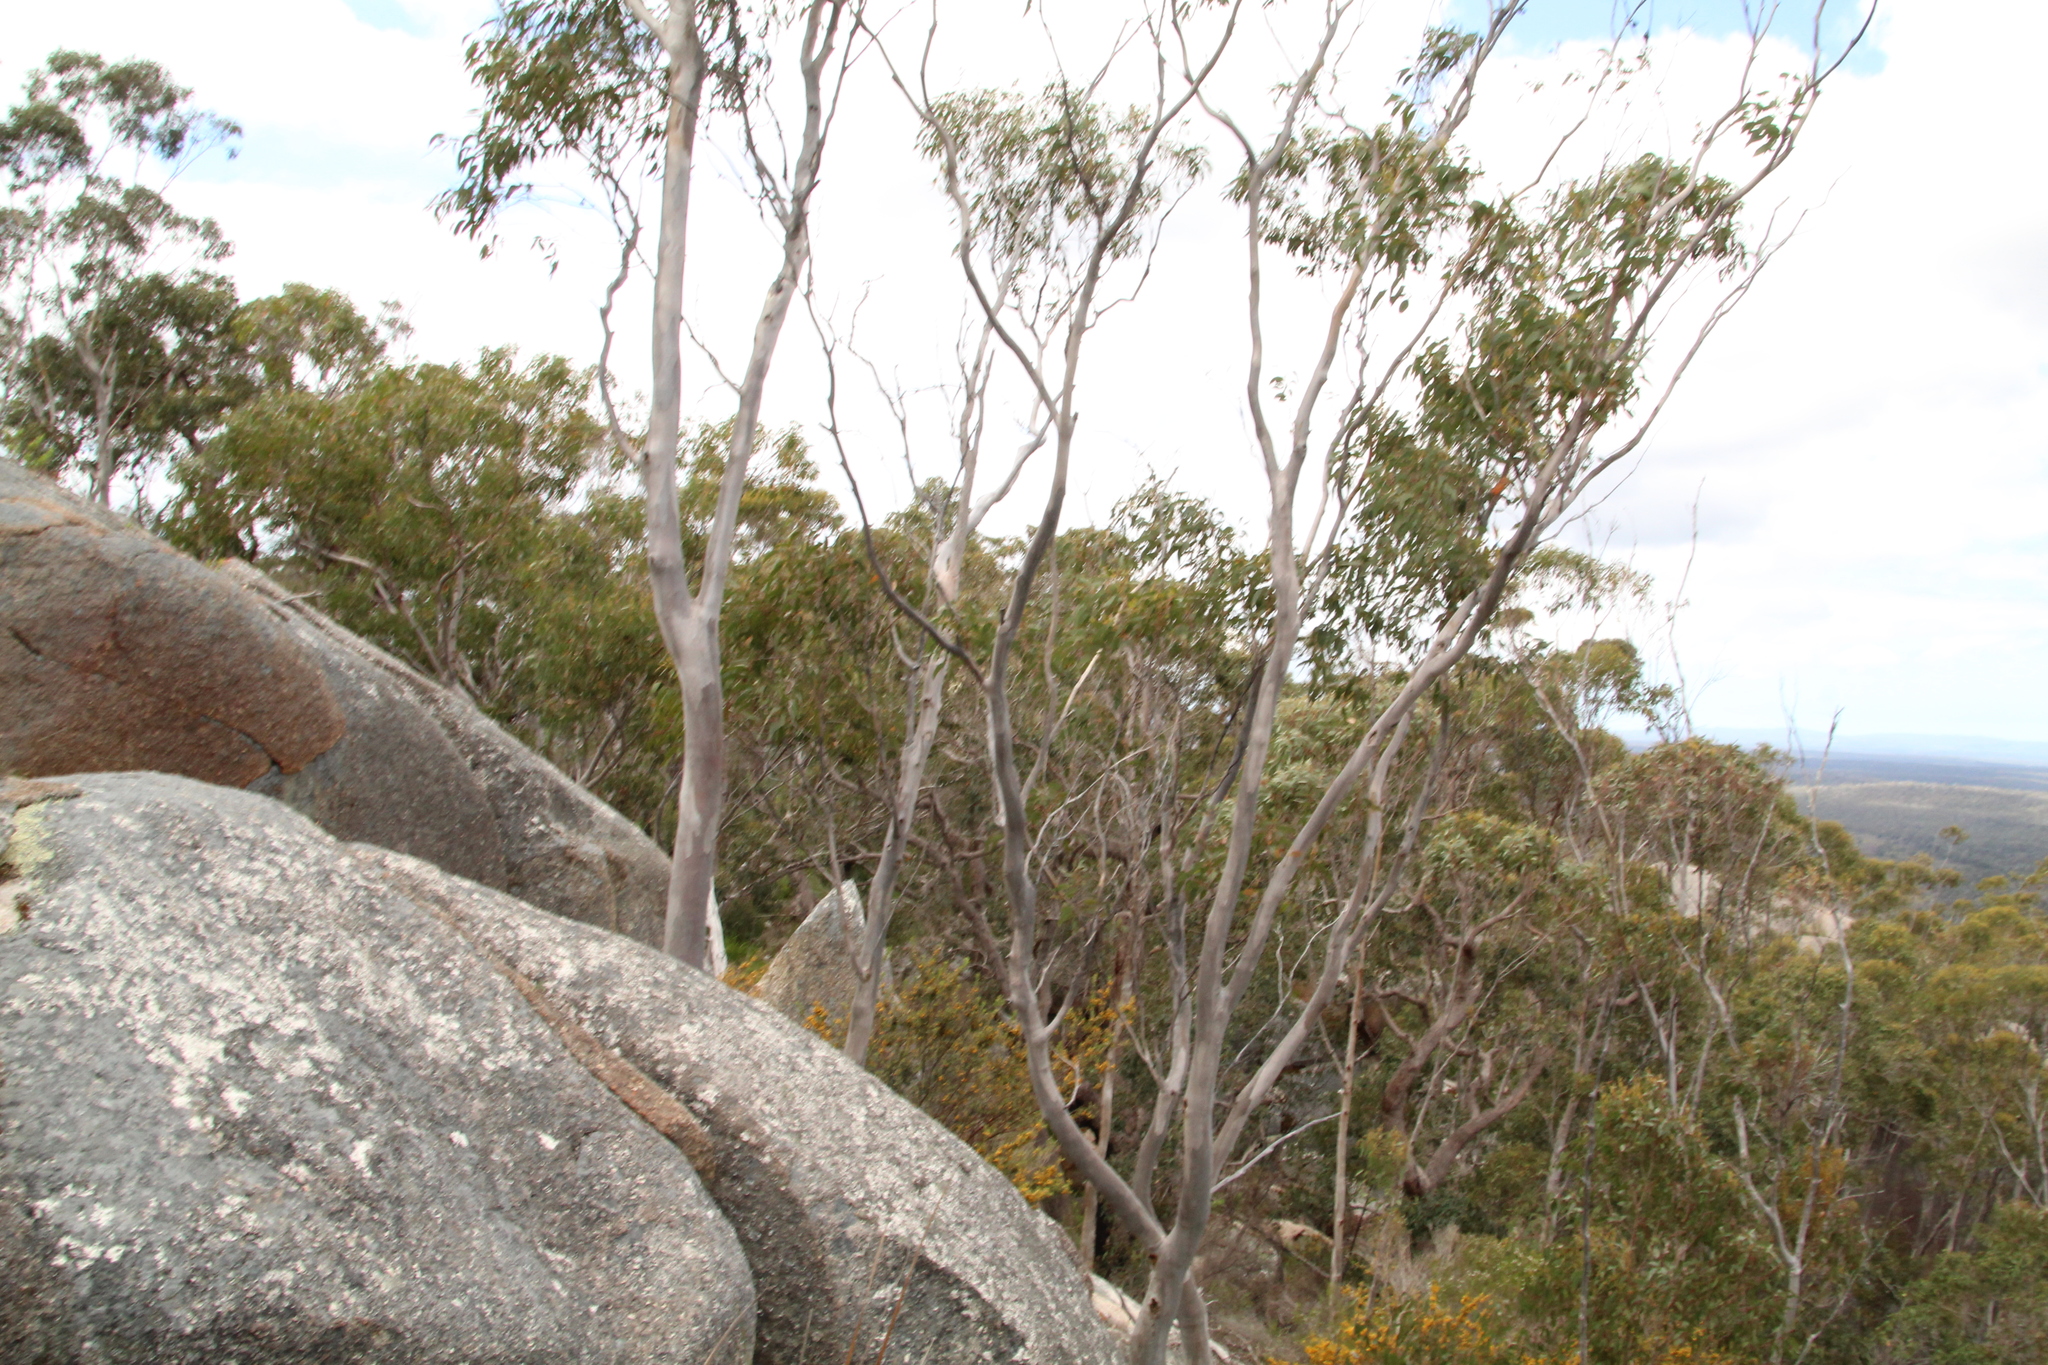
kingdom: Plantae
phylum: Tracheophyta
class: Magnoliopsida
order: Myrtales
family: Myrtaceae
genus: Eucalyptus
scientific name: Eucalyptus megacarpa
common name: Bullich
